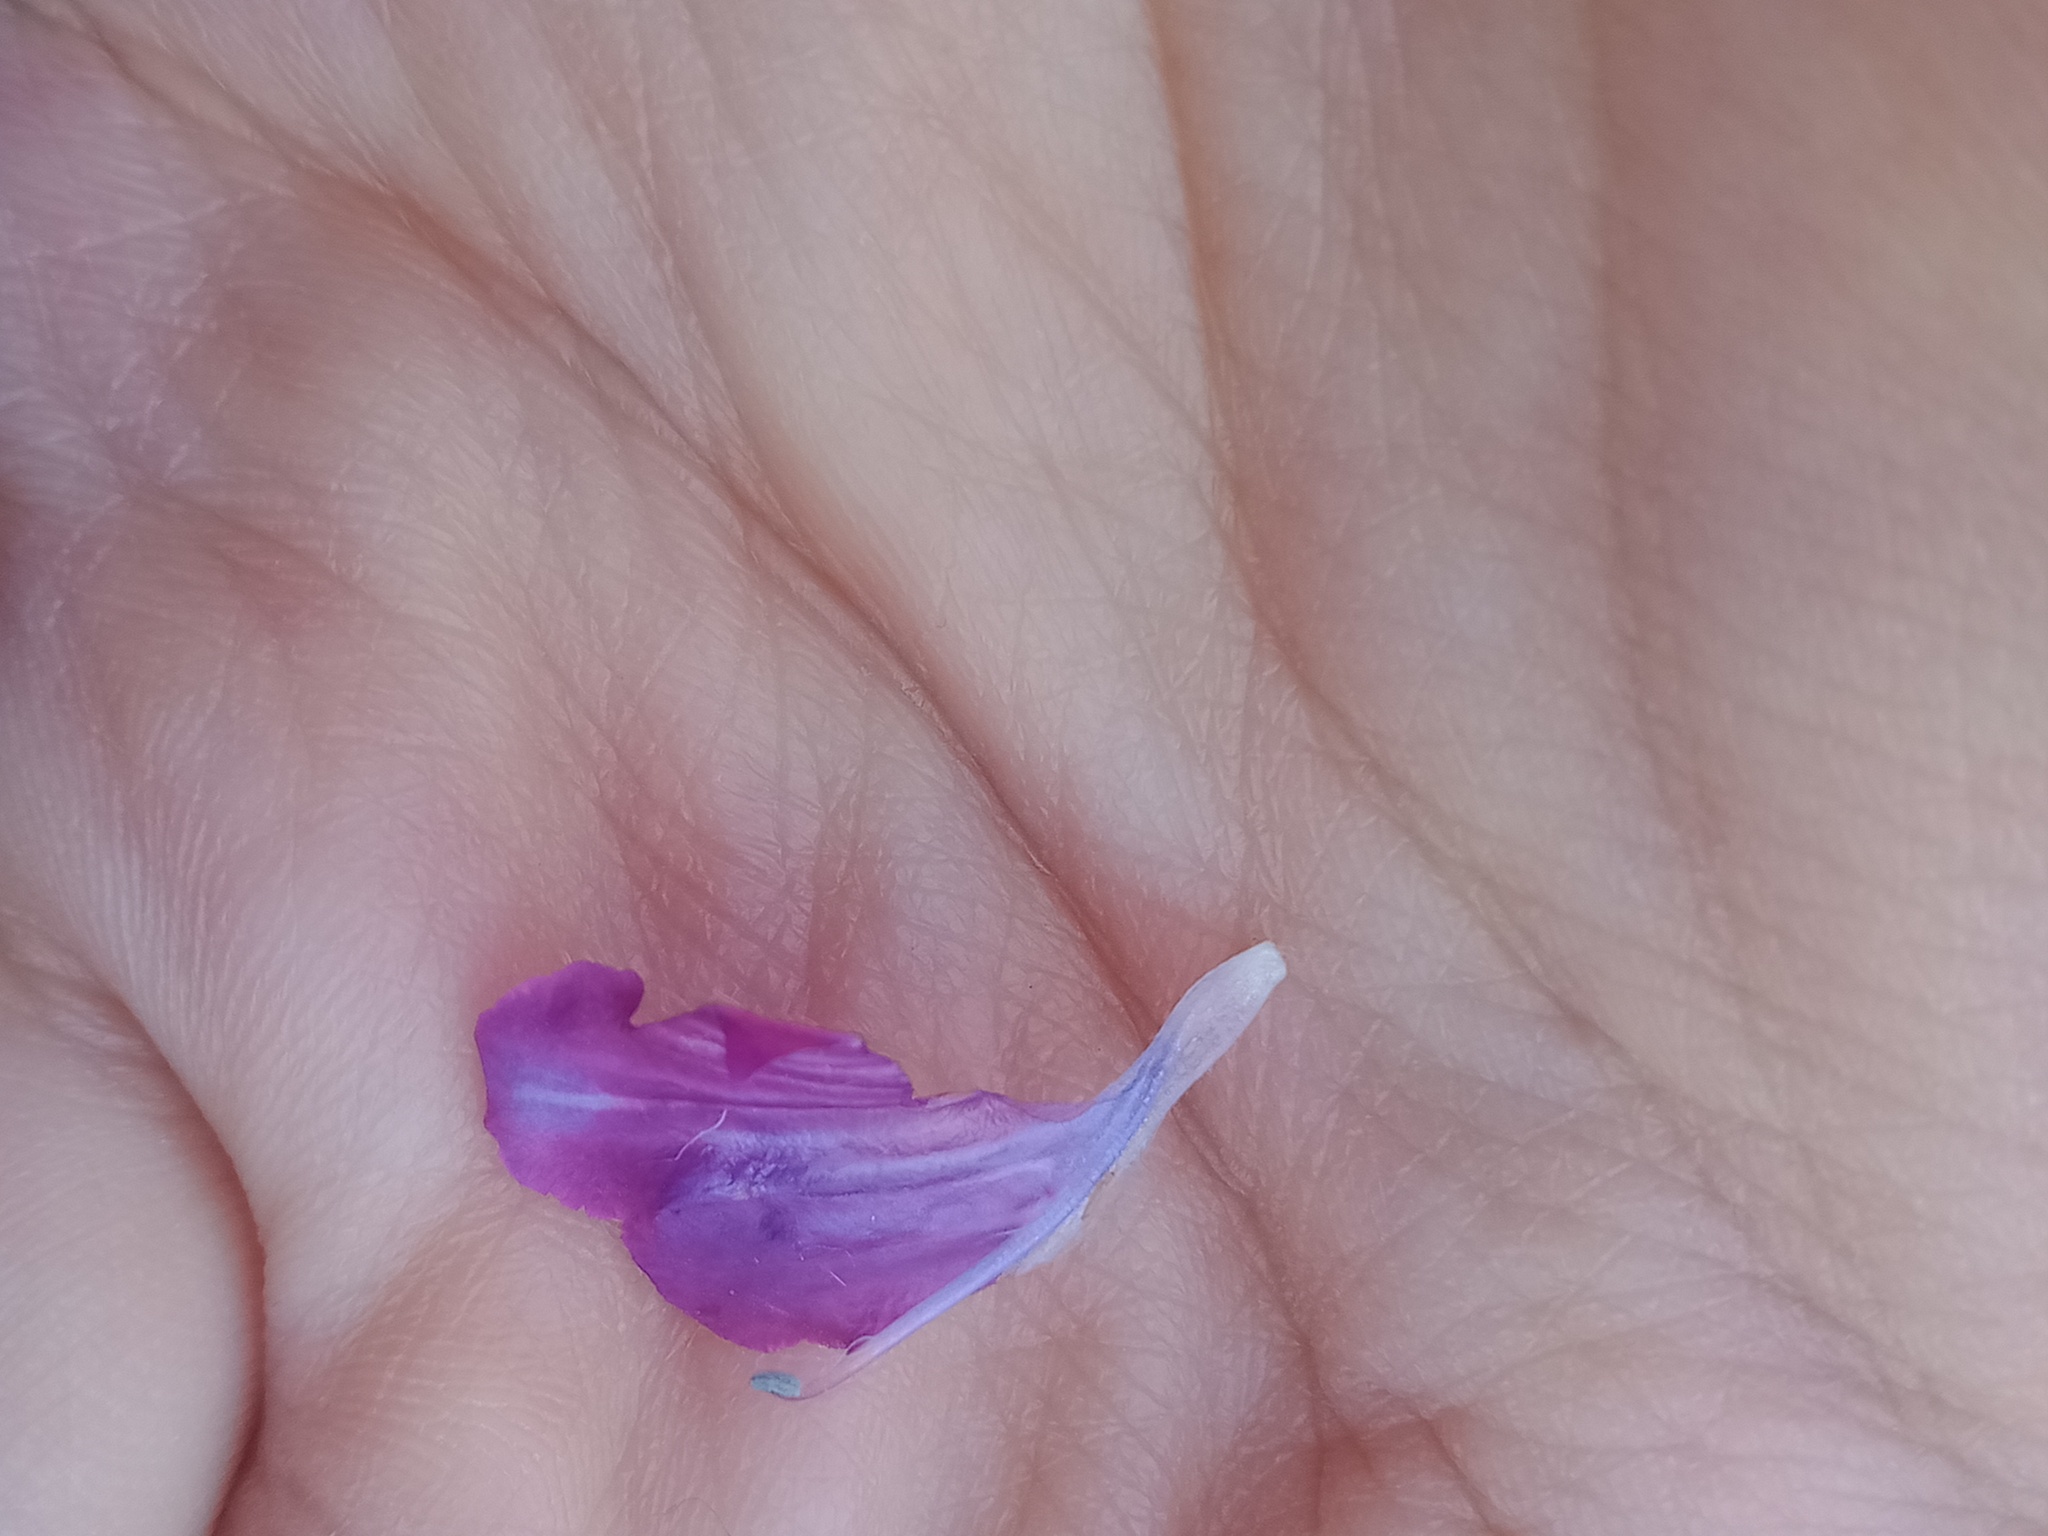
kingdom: Plantae
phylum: Tracheophyta
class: Magnoliopsida
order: Boraginales
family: Boraginaceae
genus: Echium
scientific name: Echium plantagineum
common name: Purple viper's-bugloss
